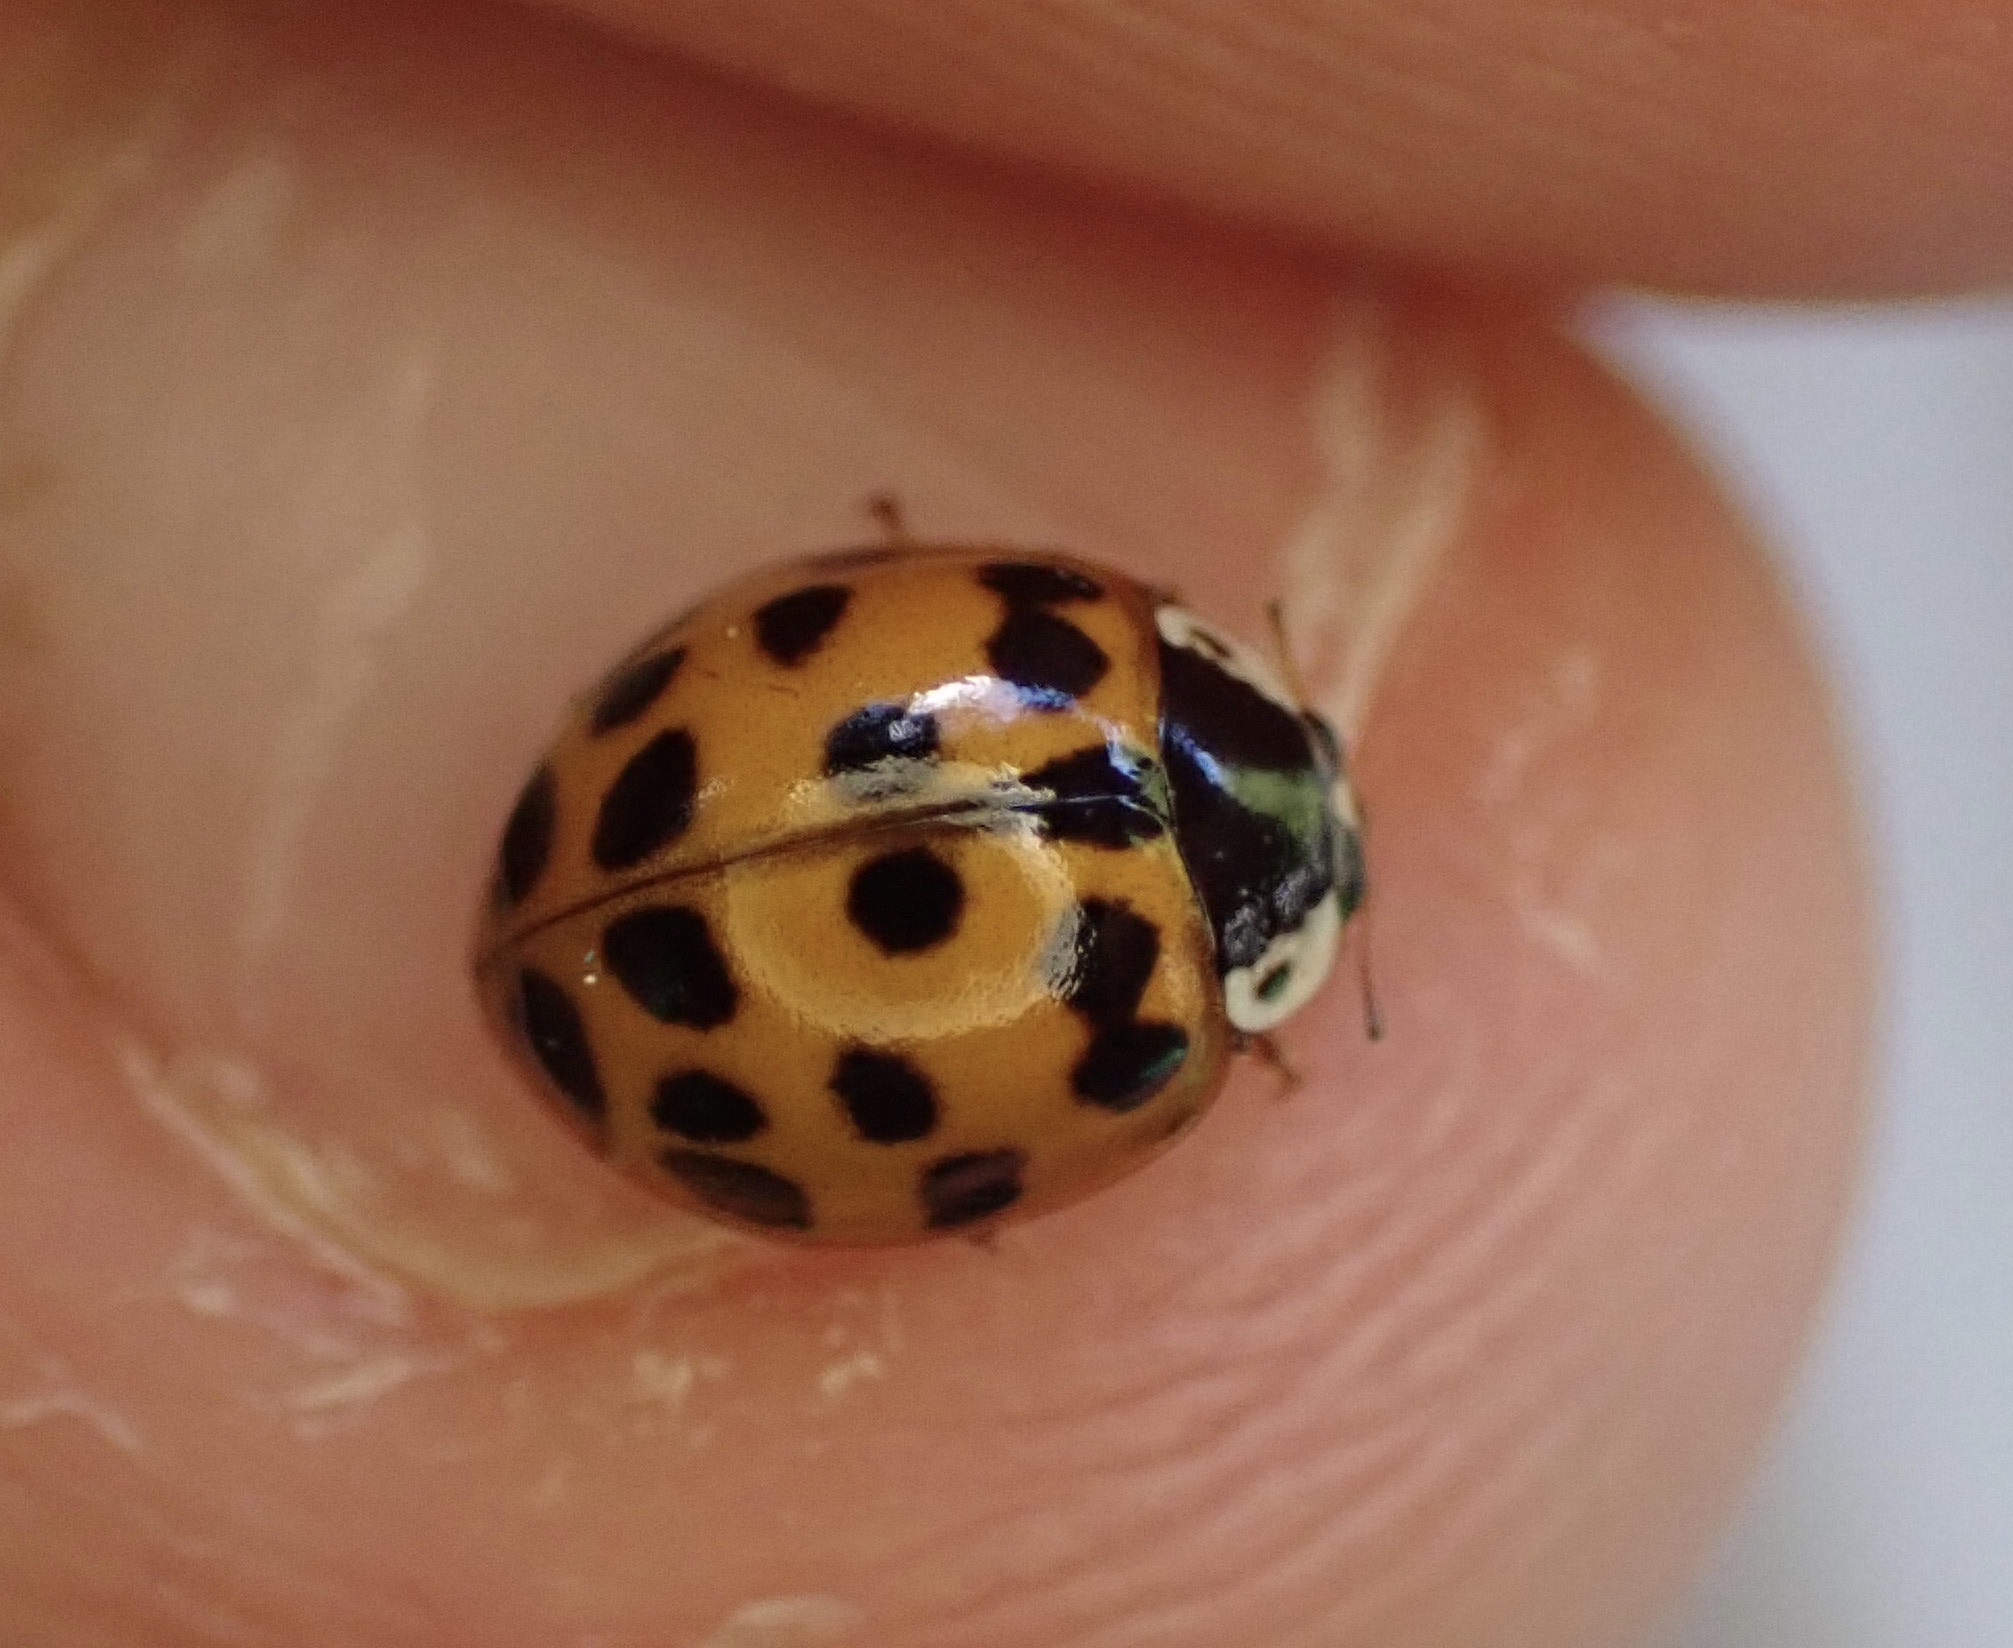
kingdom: Animalia
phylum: Arthropoda
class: Insecta
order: Coleoptera
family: Coccinellidae
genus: Harmonia
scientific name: Harmonia axyridis
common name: Harlequin ladybird
